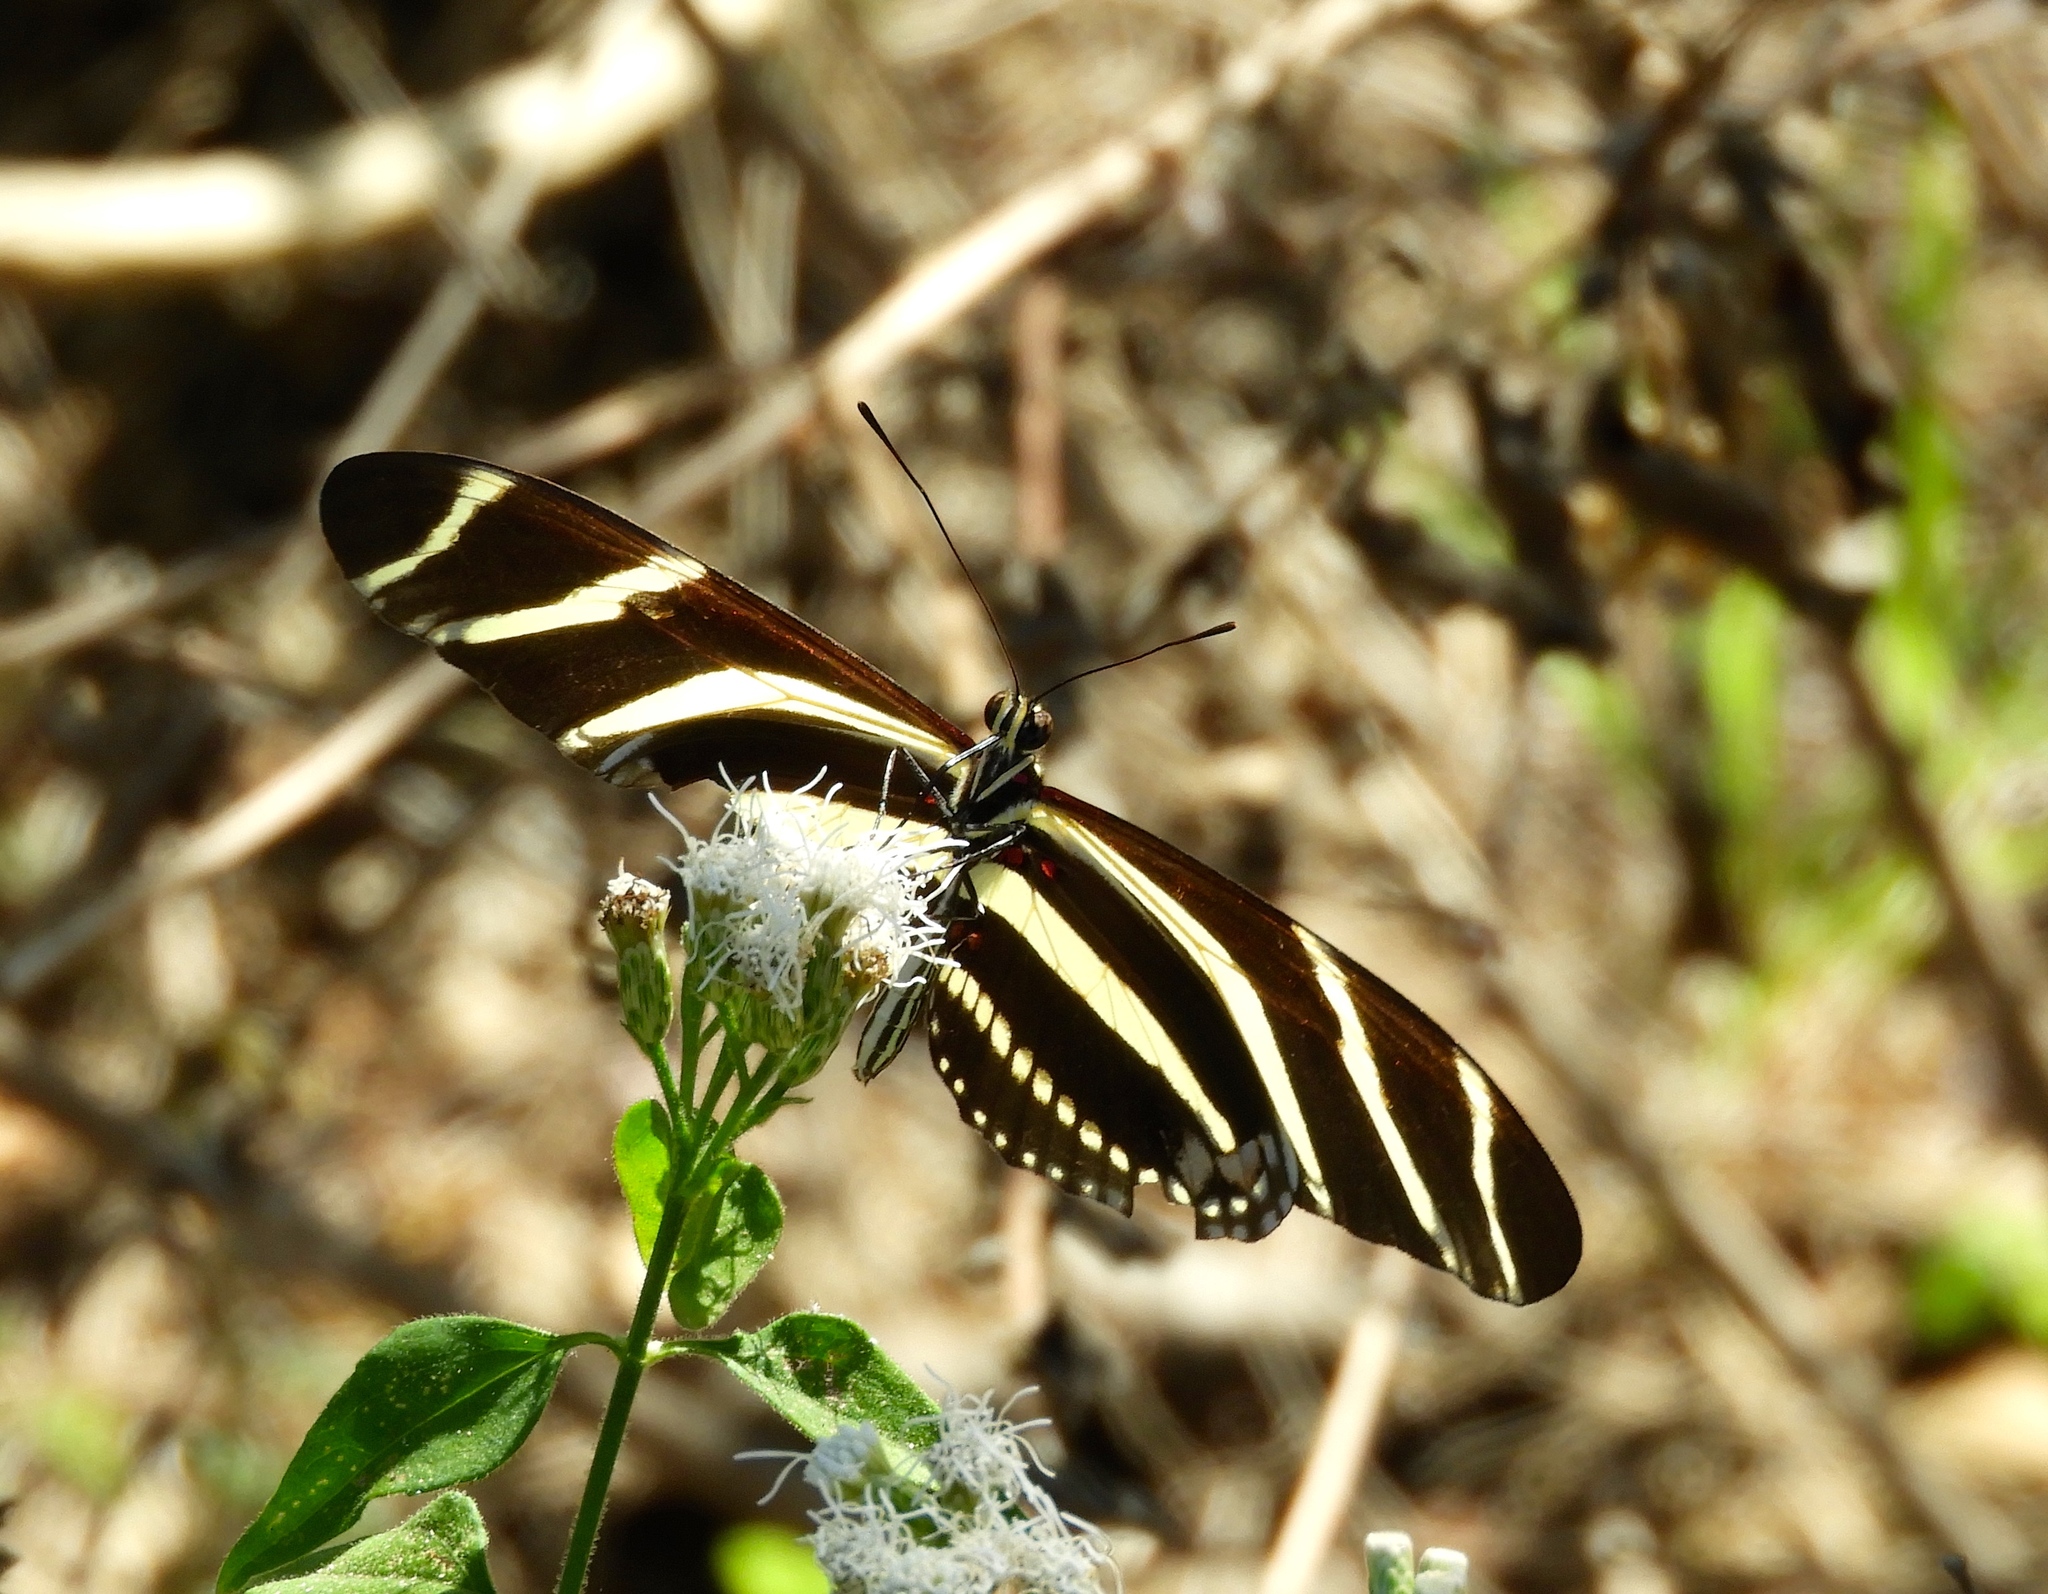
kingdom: Animalia
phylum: Arthropoda
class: Insecta
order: Lepidoptera
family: Nymphalidae
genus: Heliconius
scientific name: Heliconius charithonia
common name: Zebra long wing
